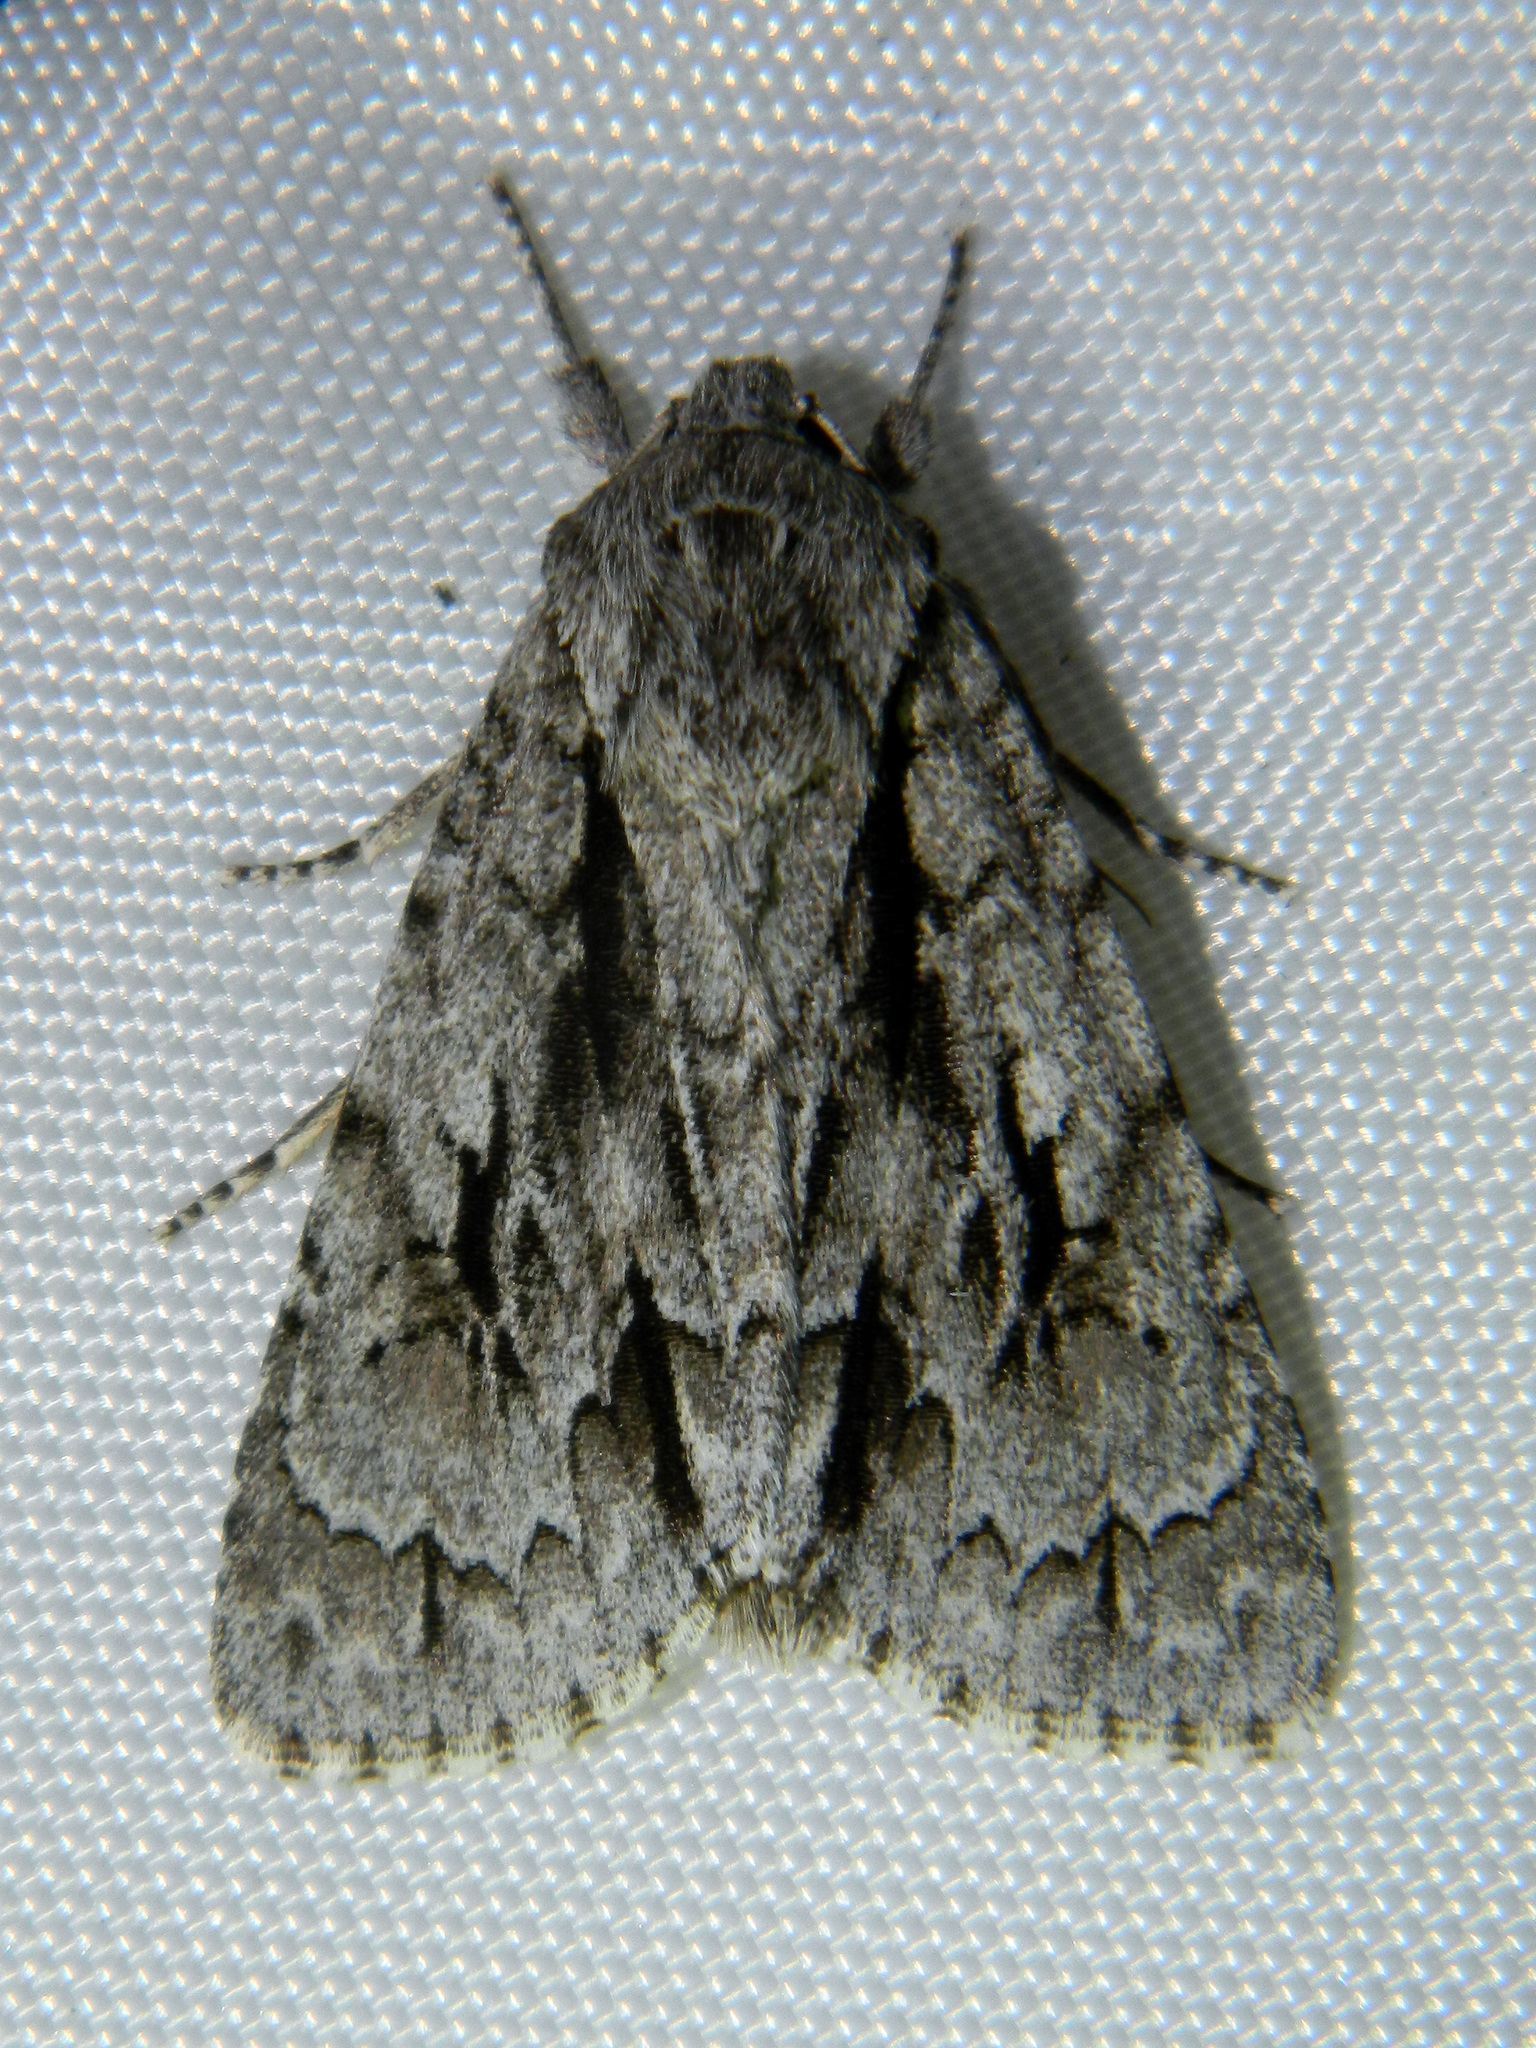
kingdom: Animalia
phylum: Arthropoda
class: Insecta
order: Lepidoptera
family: Noctuidae
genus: Acronicta
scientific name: Acronicta hasta
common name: Cherry dagger
